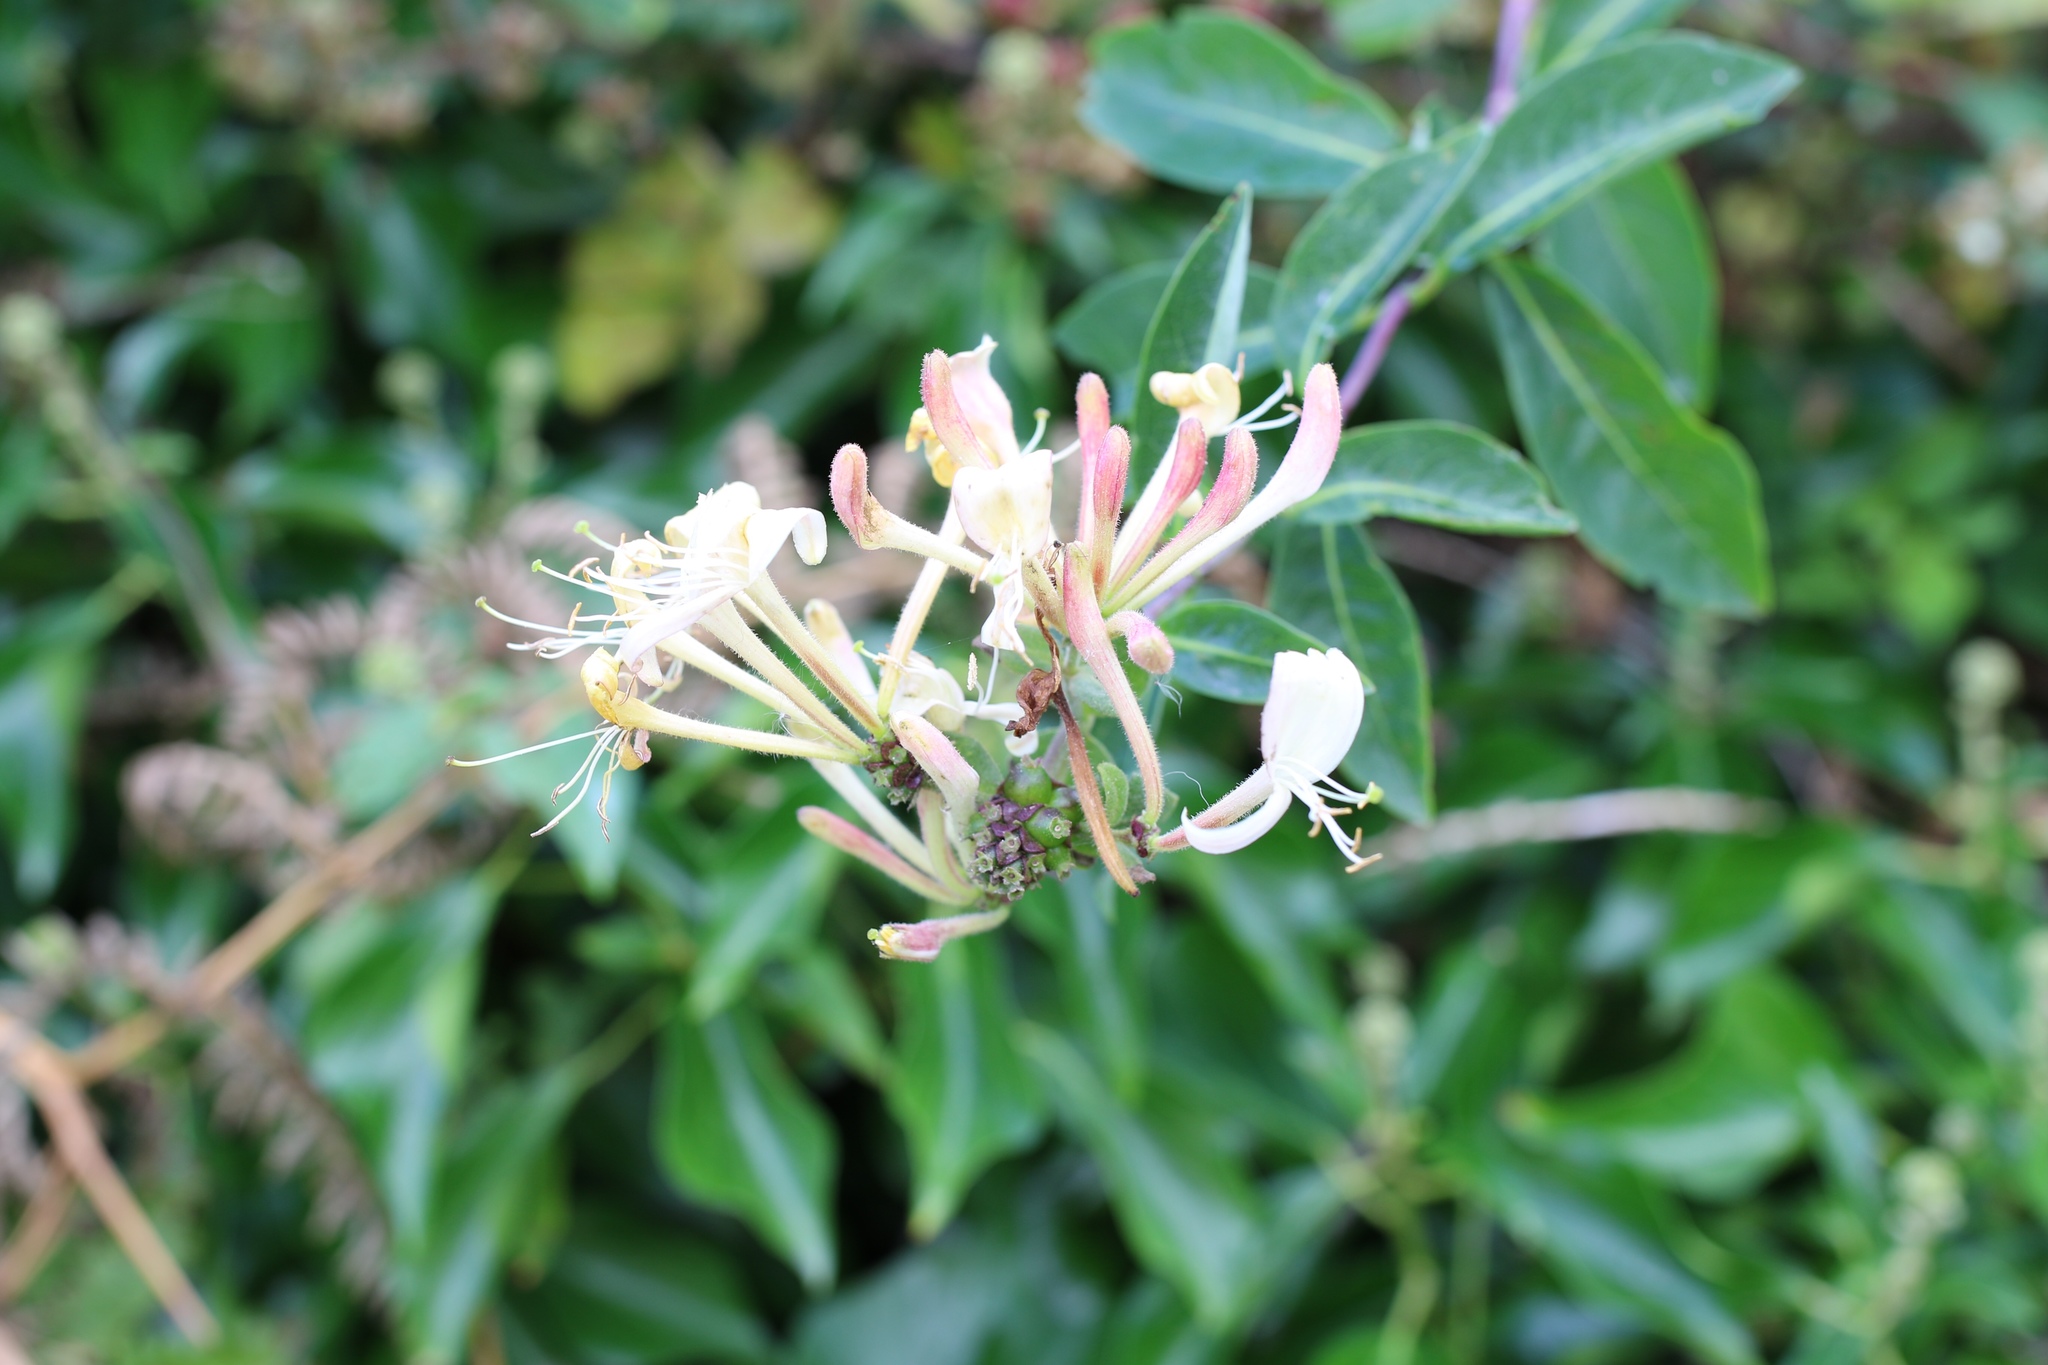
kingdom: Plantae
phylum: Tracheophyta
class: Magnoliopsida
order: Dipsacales
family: Caprifoliaceae
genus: Lonicera
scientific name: Lonicera periclymenum
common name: European honeysuckle
